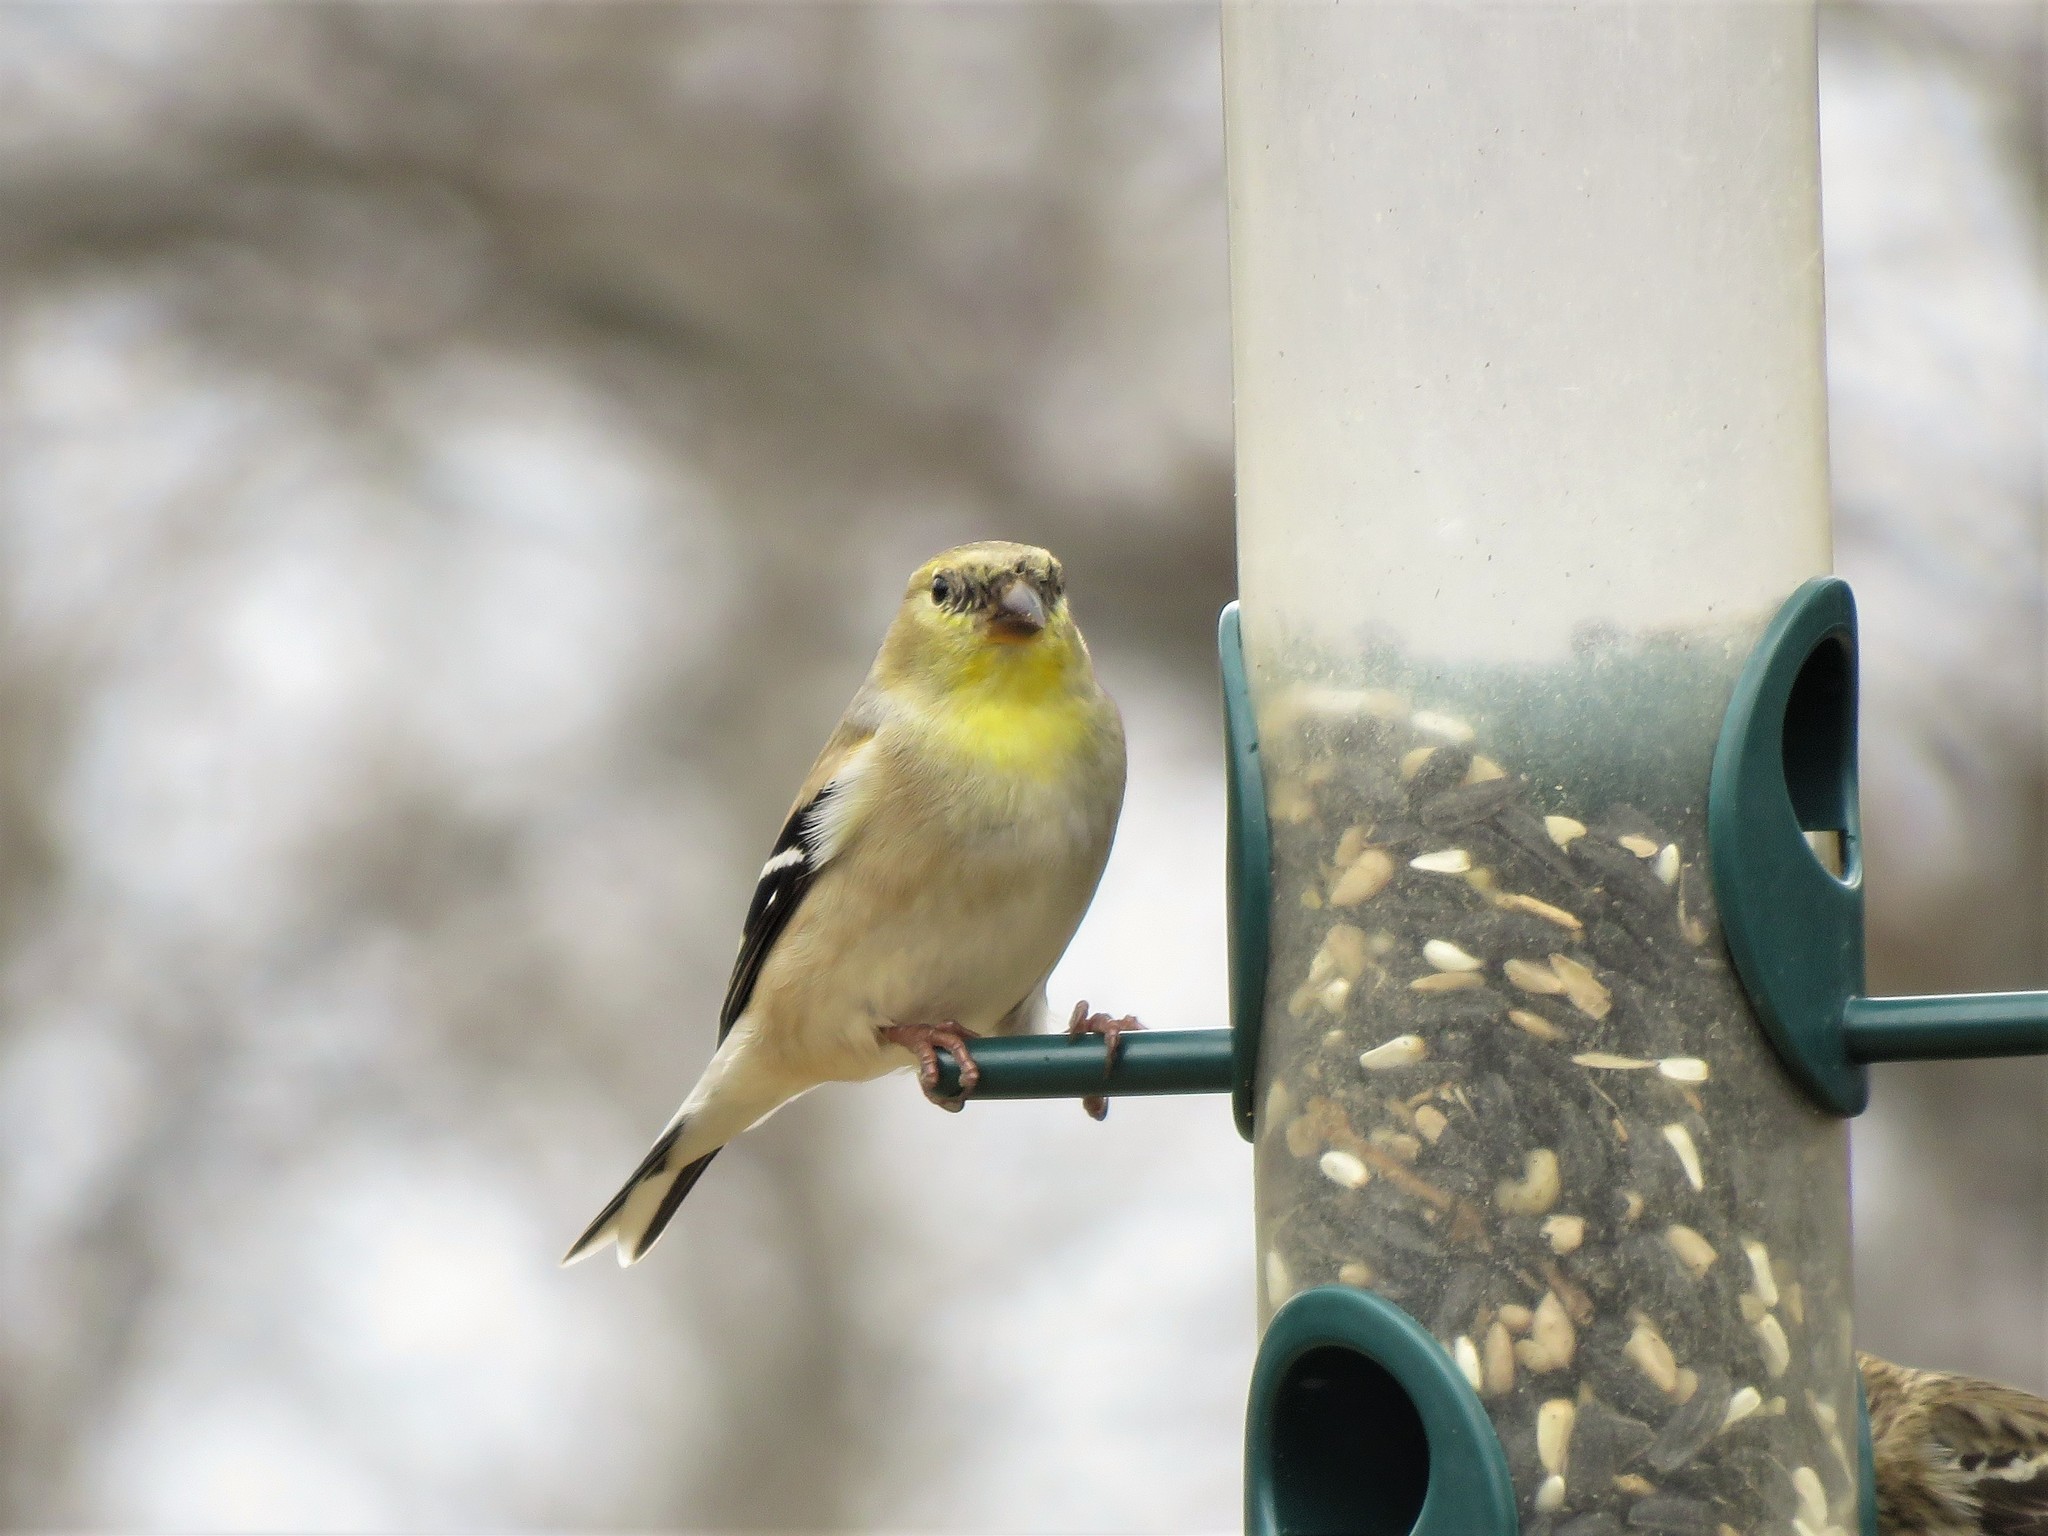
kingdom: Animalia
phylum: Chordata
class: Aves
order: Passeriformes
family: Fringillidae
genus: Spinus
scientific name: Spinus tristis
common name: American goldfinch
